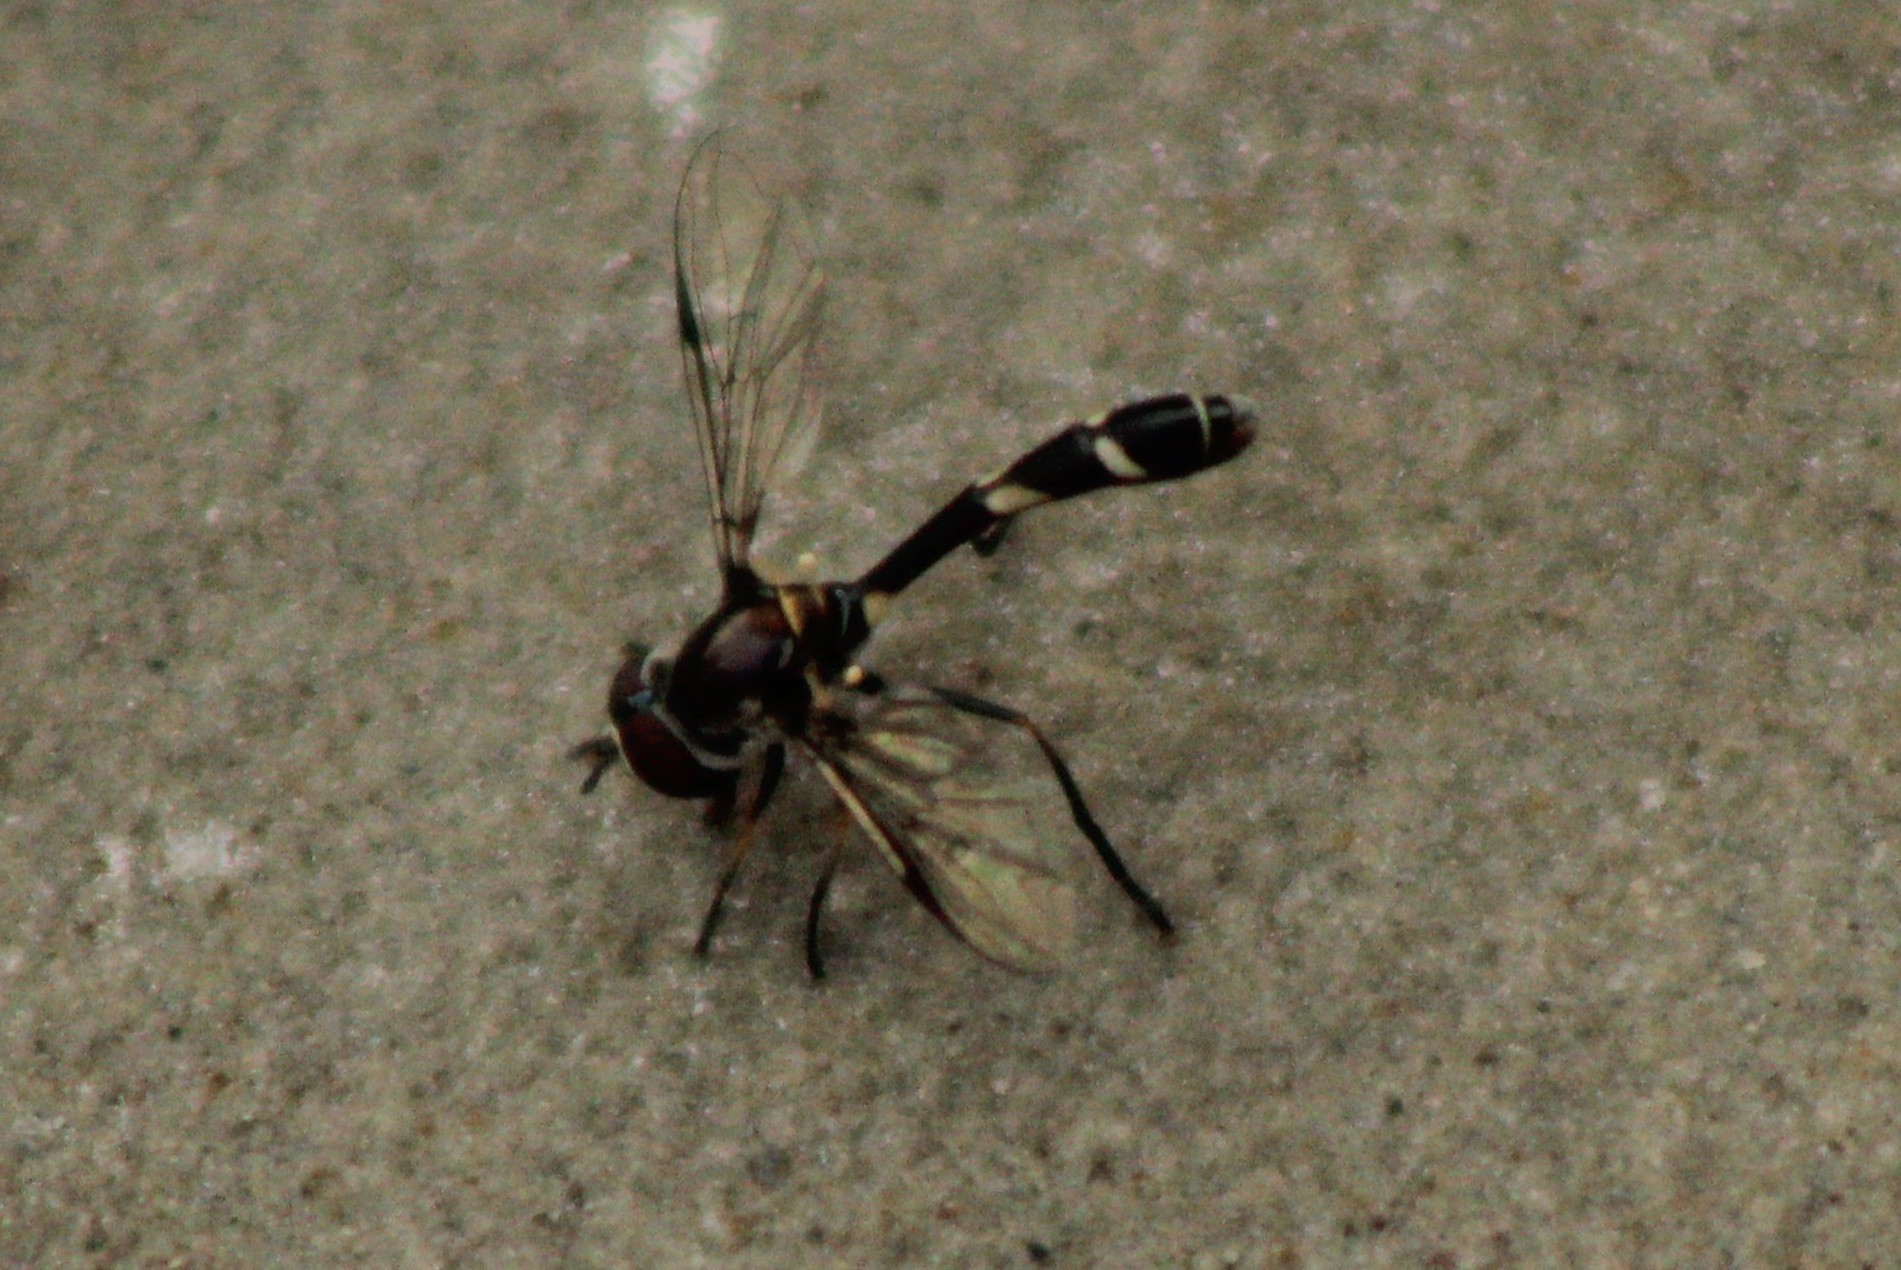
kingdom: Animalia
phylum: Arthropoda
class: Insecta
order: Diptera
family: Syrphidae
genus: Dioprosopa
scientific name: Dioprosopa clavatus
